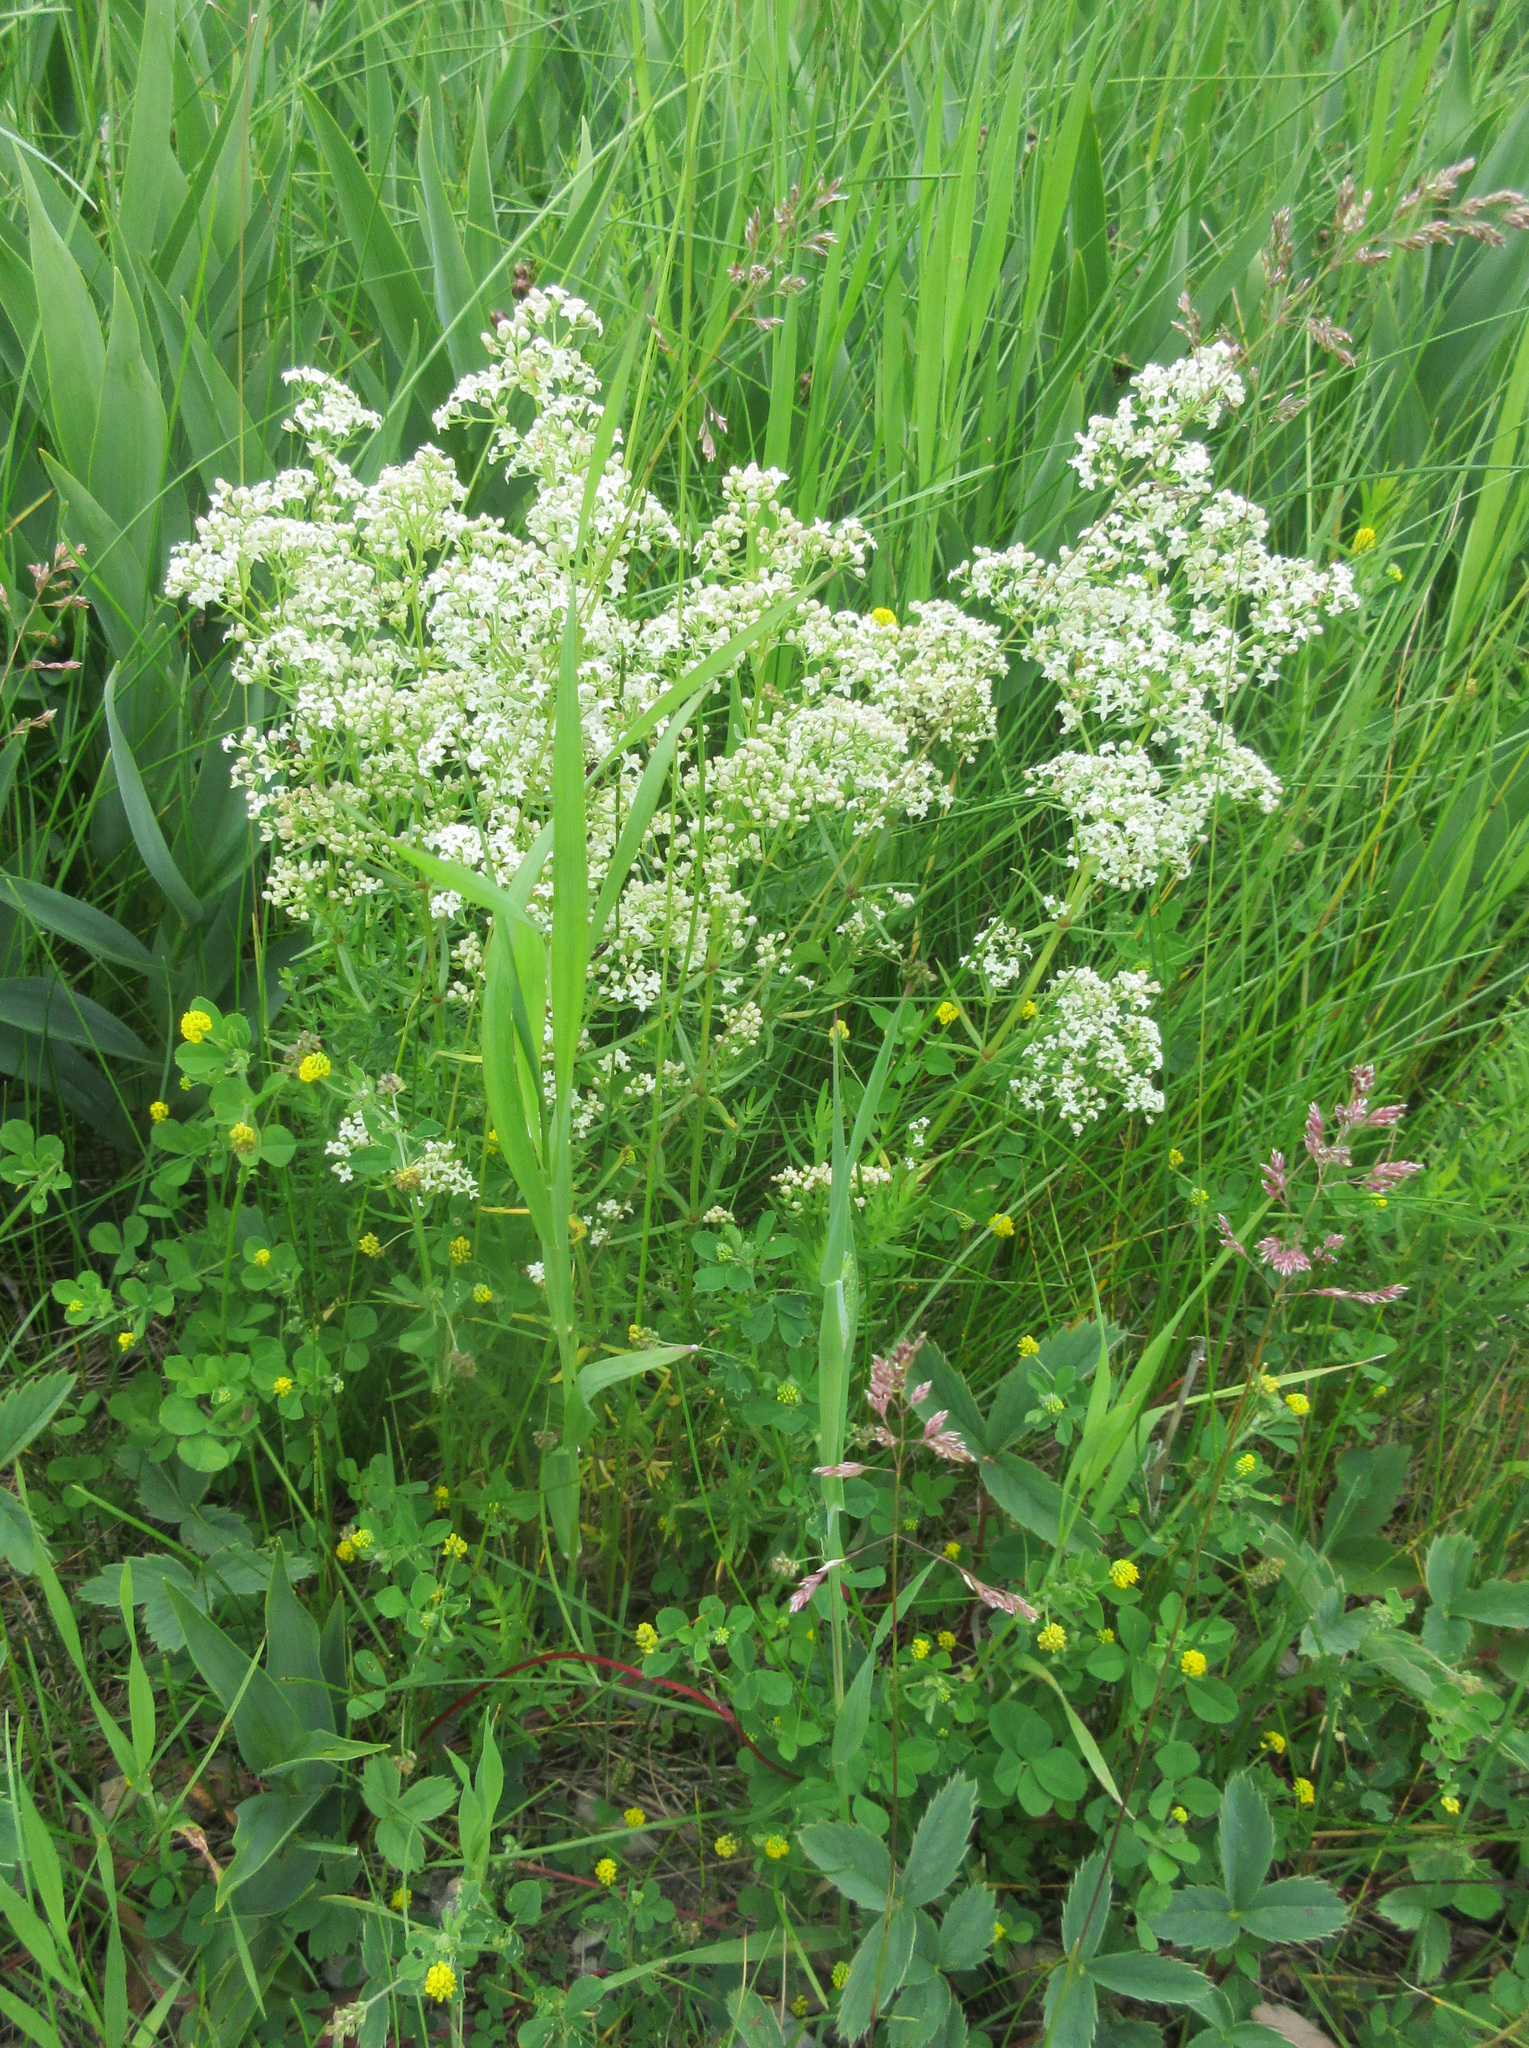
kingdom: Plantae
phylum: Tracheophyta
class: Magnoliopsida
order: Gentianales
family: Rubiaceae
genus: Galium
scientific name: Galium boreale
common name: Northern bedstraw
